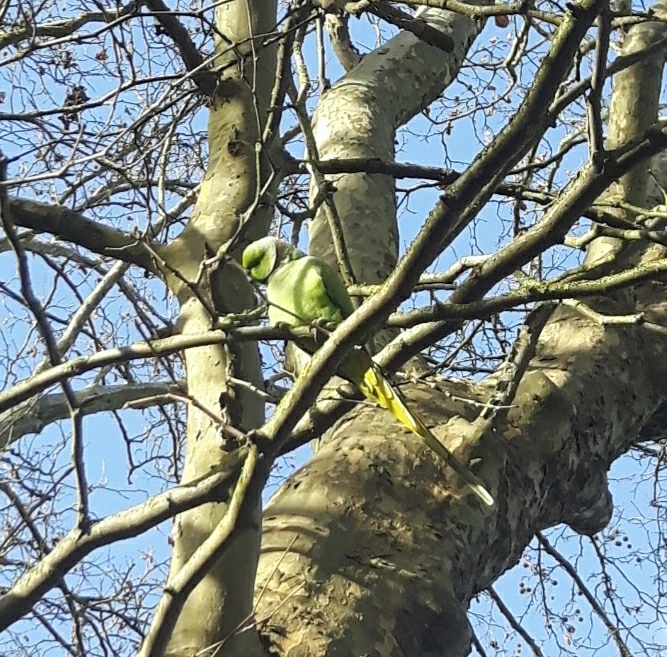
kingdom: Animalia
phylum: Chordata
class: Aves
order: Psittaciformes
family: Psittacidae
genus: Psittacula
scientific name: Psittacula krameri
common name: Rose-ringed parakeet
